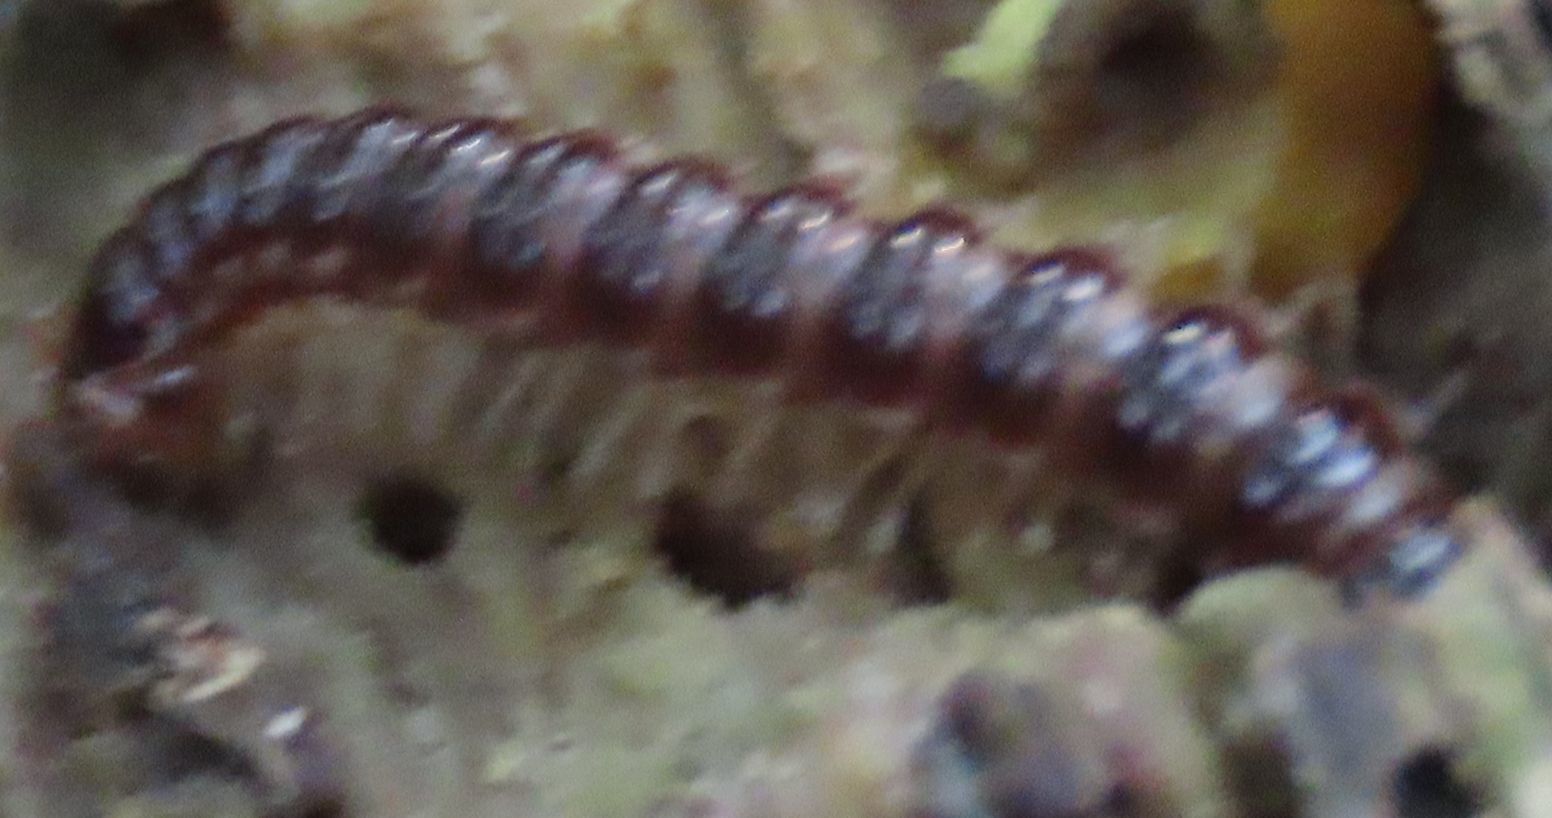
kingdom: Animalia
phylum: Arthropoda
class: Diplopoda
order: Polydesmida
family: Paradoxosomatidae
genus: Oxidus
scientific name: Oxidus gracilis
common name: Greenhouse millipede
